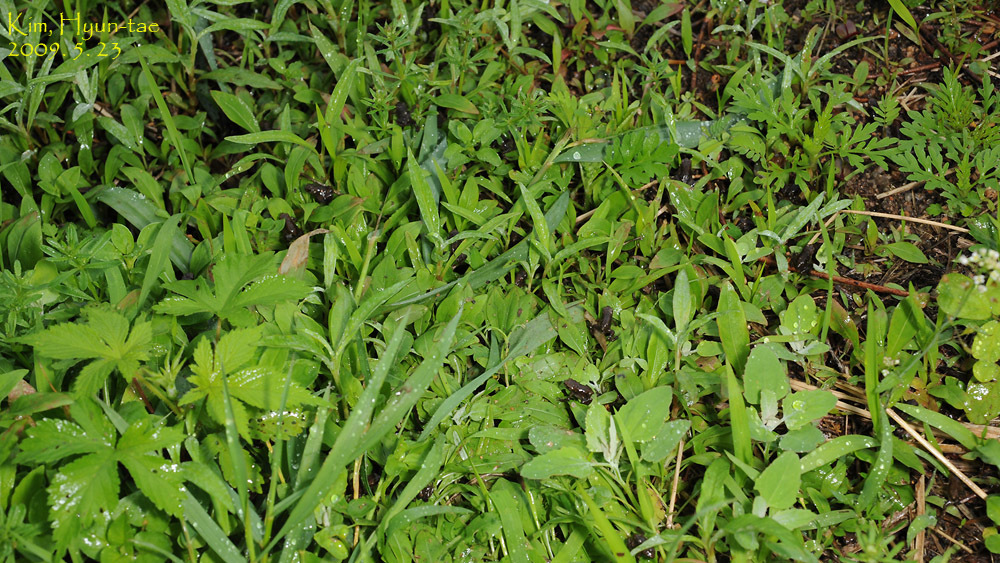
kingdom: Animalia
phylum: Chordata
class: Amphibia
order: Anura
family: Bufonidae
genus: Bufo
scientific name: Bufo gargarizans
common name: Asiatic toad
